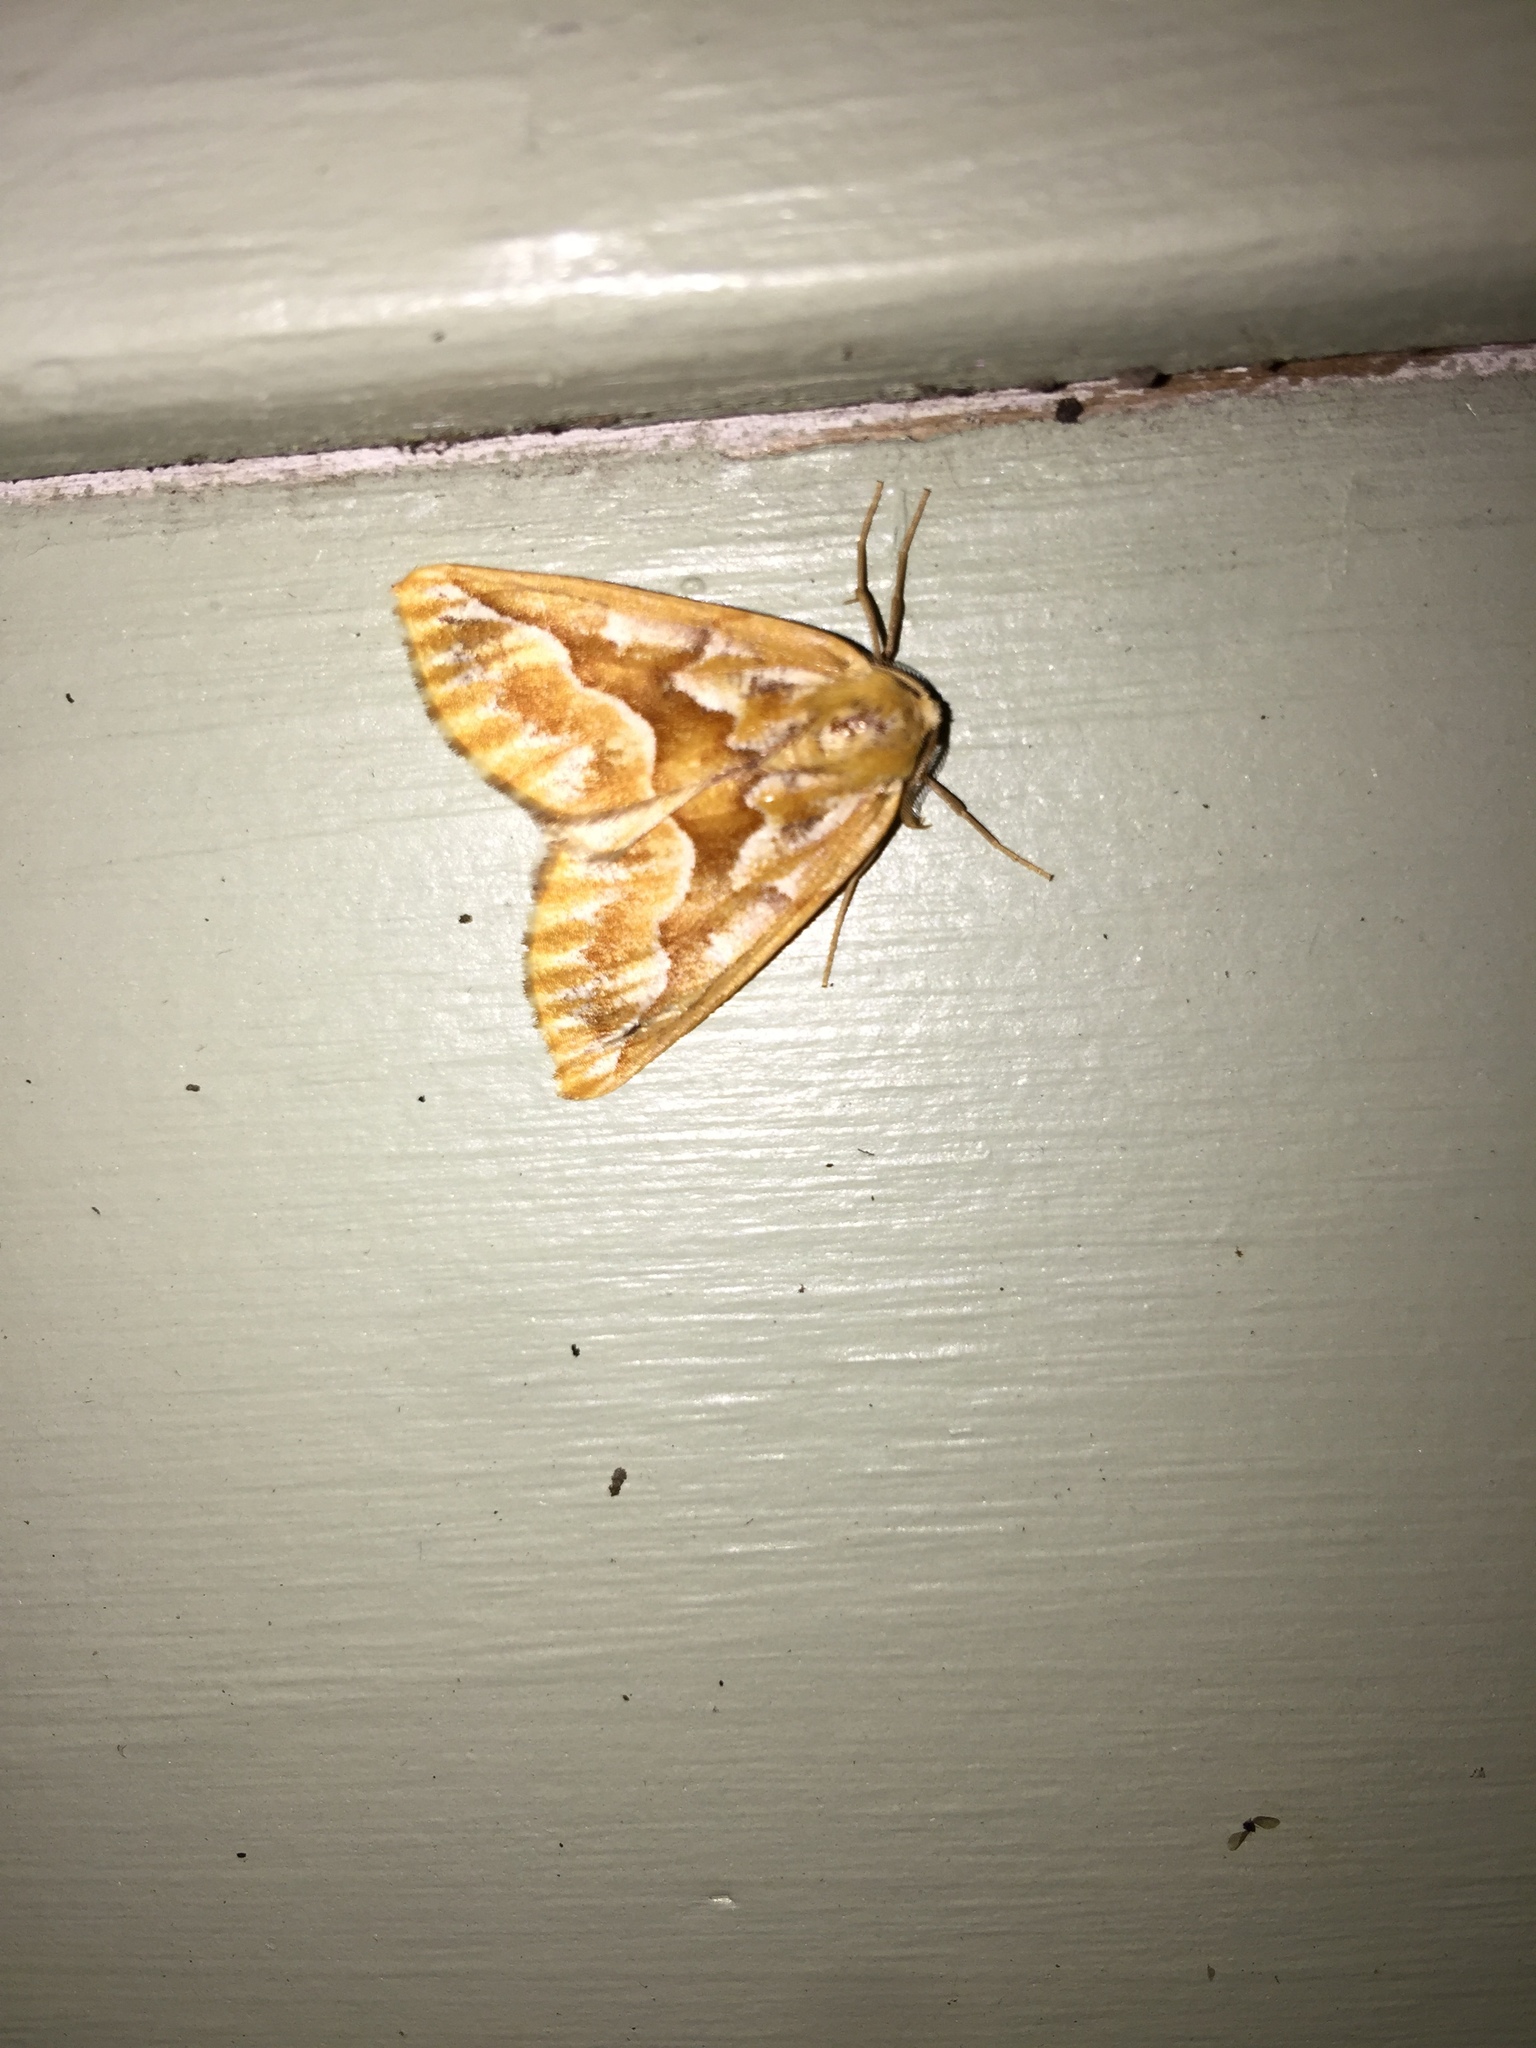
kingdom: Animalia
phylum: Arthropoda
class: Insecta
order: Lepidoptera
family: Geometridae
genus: Caripeta
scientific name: Caripeta piniata
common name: Northern pine looper moth
